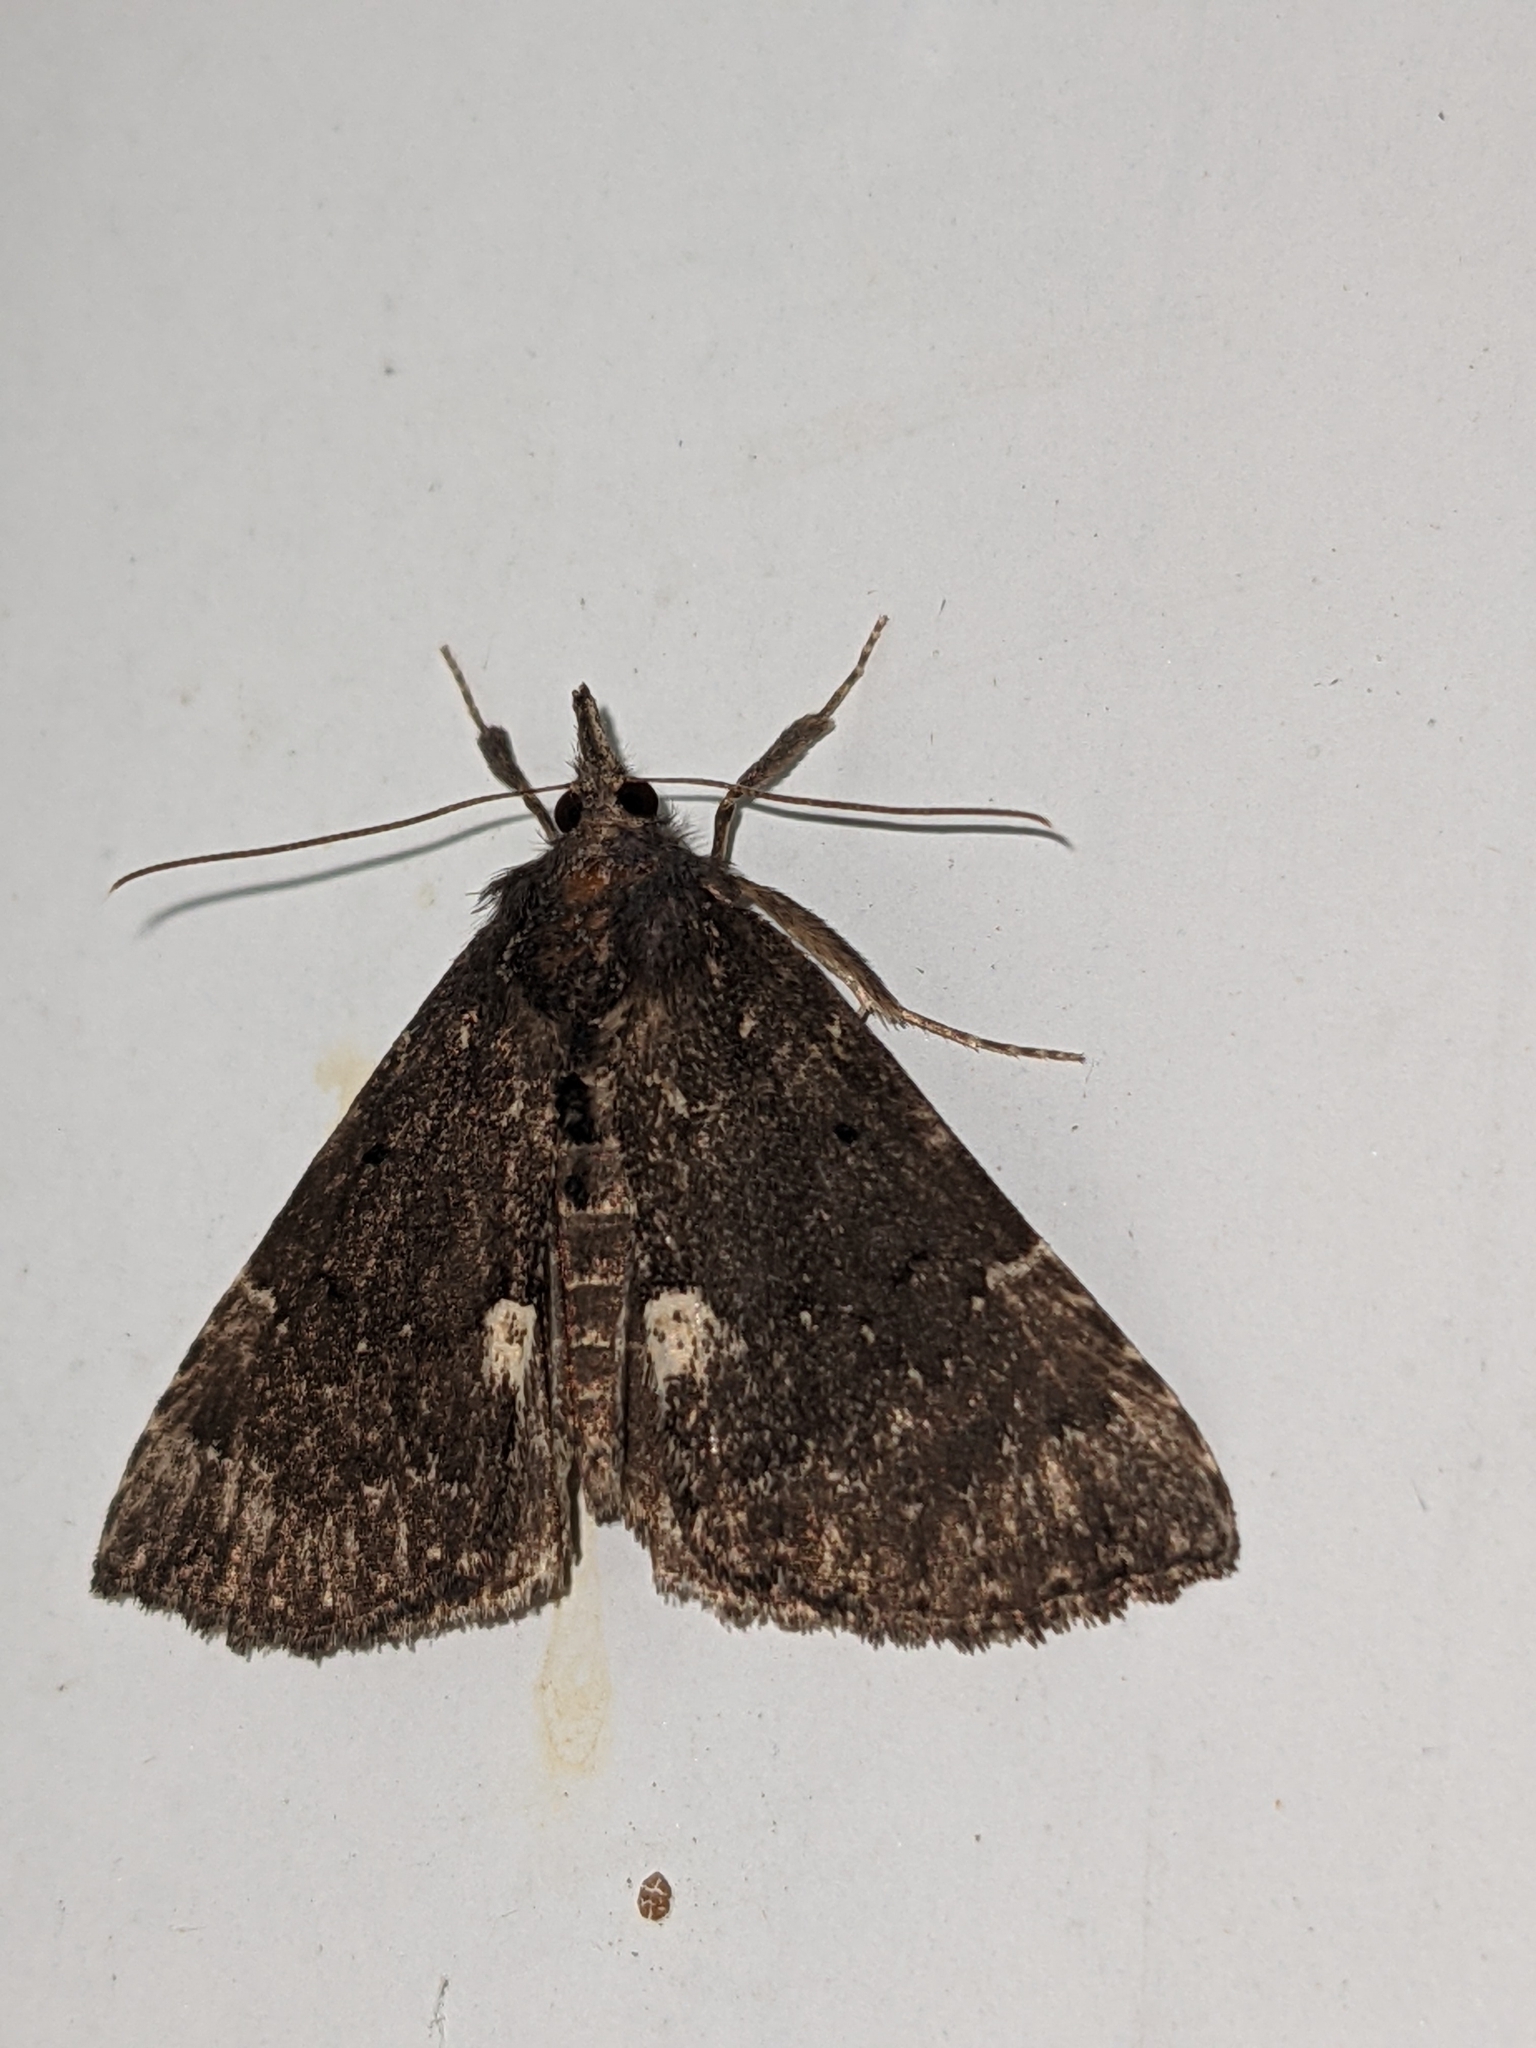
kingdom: Animalia
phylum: Arthropoda
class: Insecta
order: Lepidoptera
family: Erebidae
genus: Hypena
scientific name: Hypena bijugalis
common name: Dimorphic bomolocha moth
